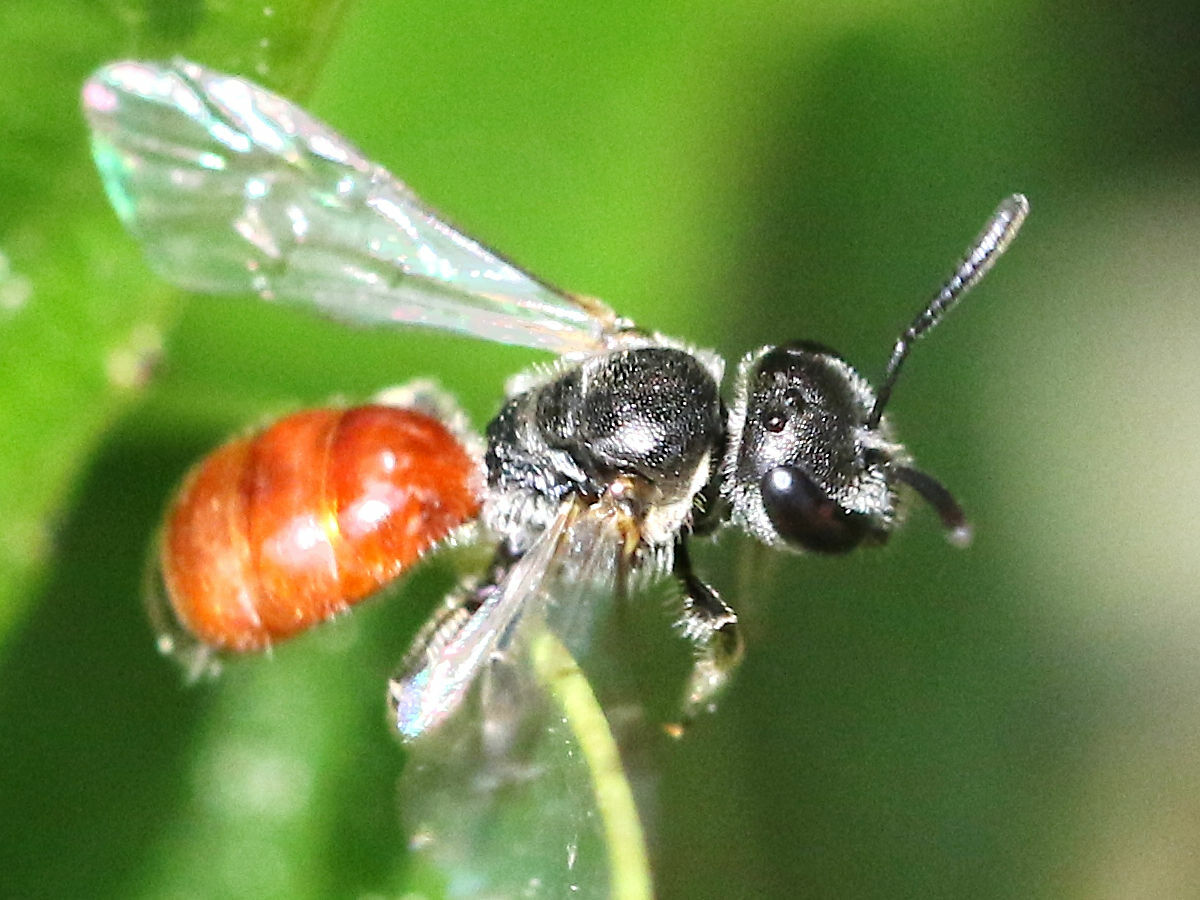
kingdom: Animalia
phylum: Arthropoda
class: Insecta
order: Hymenoptera
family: Halictidae
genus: Lasioglossum
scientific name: Lasioglossum pseudosphecodimorphum
